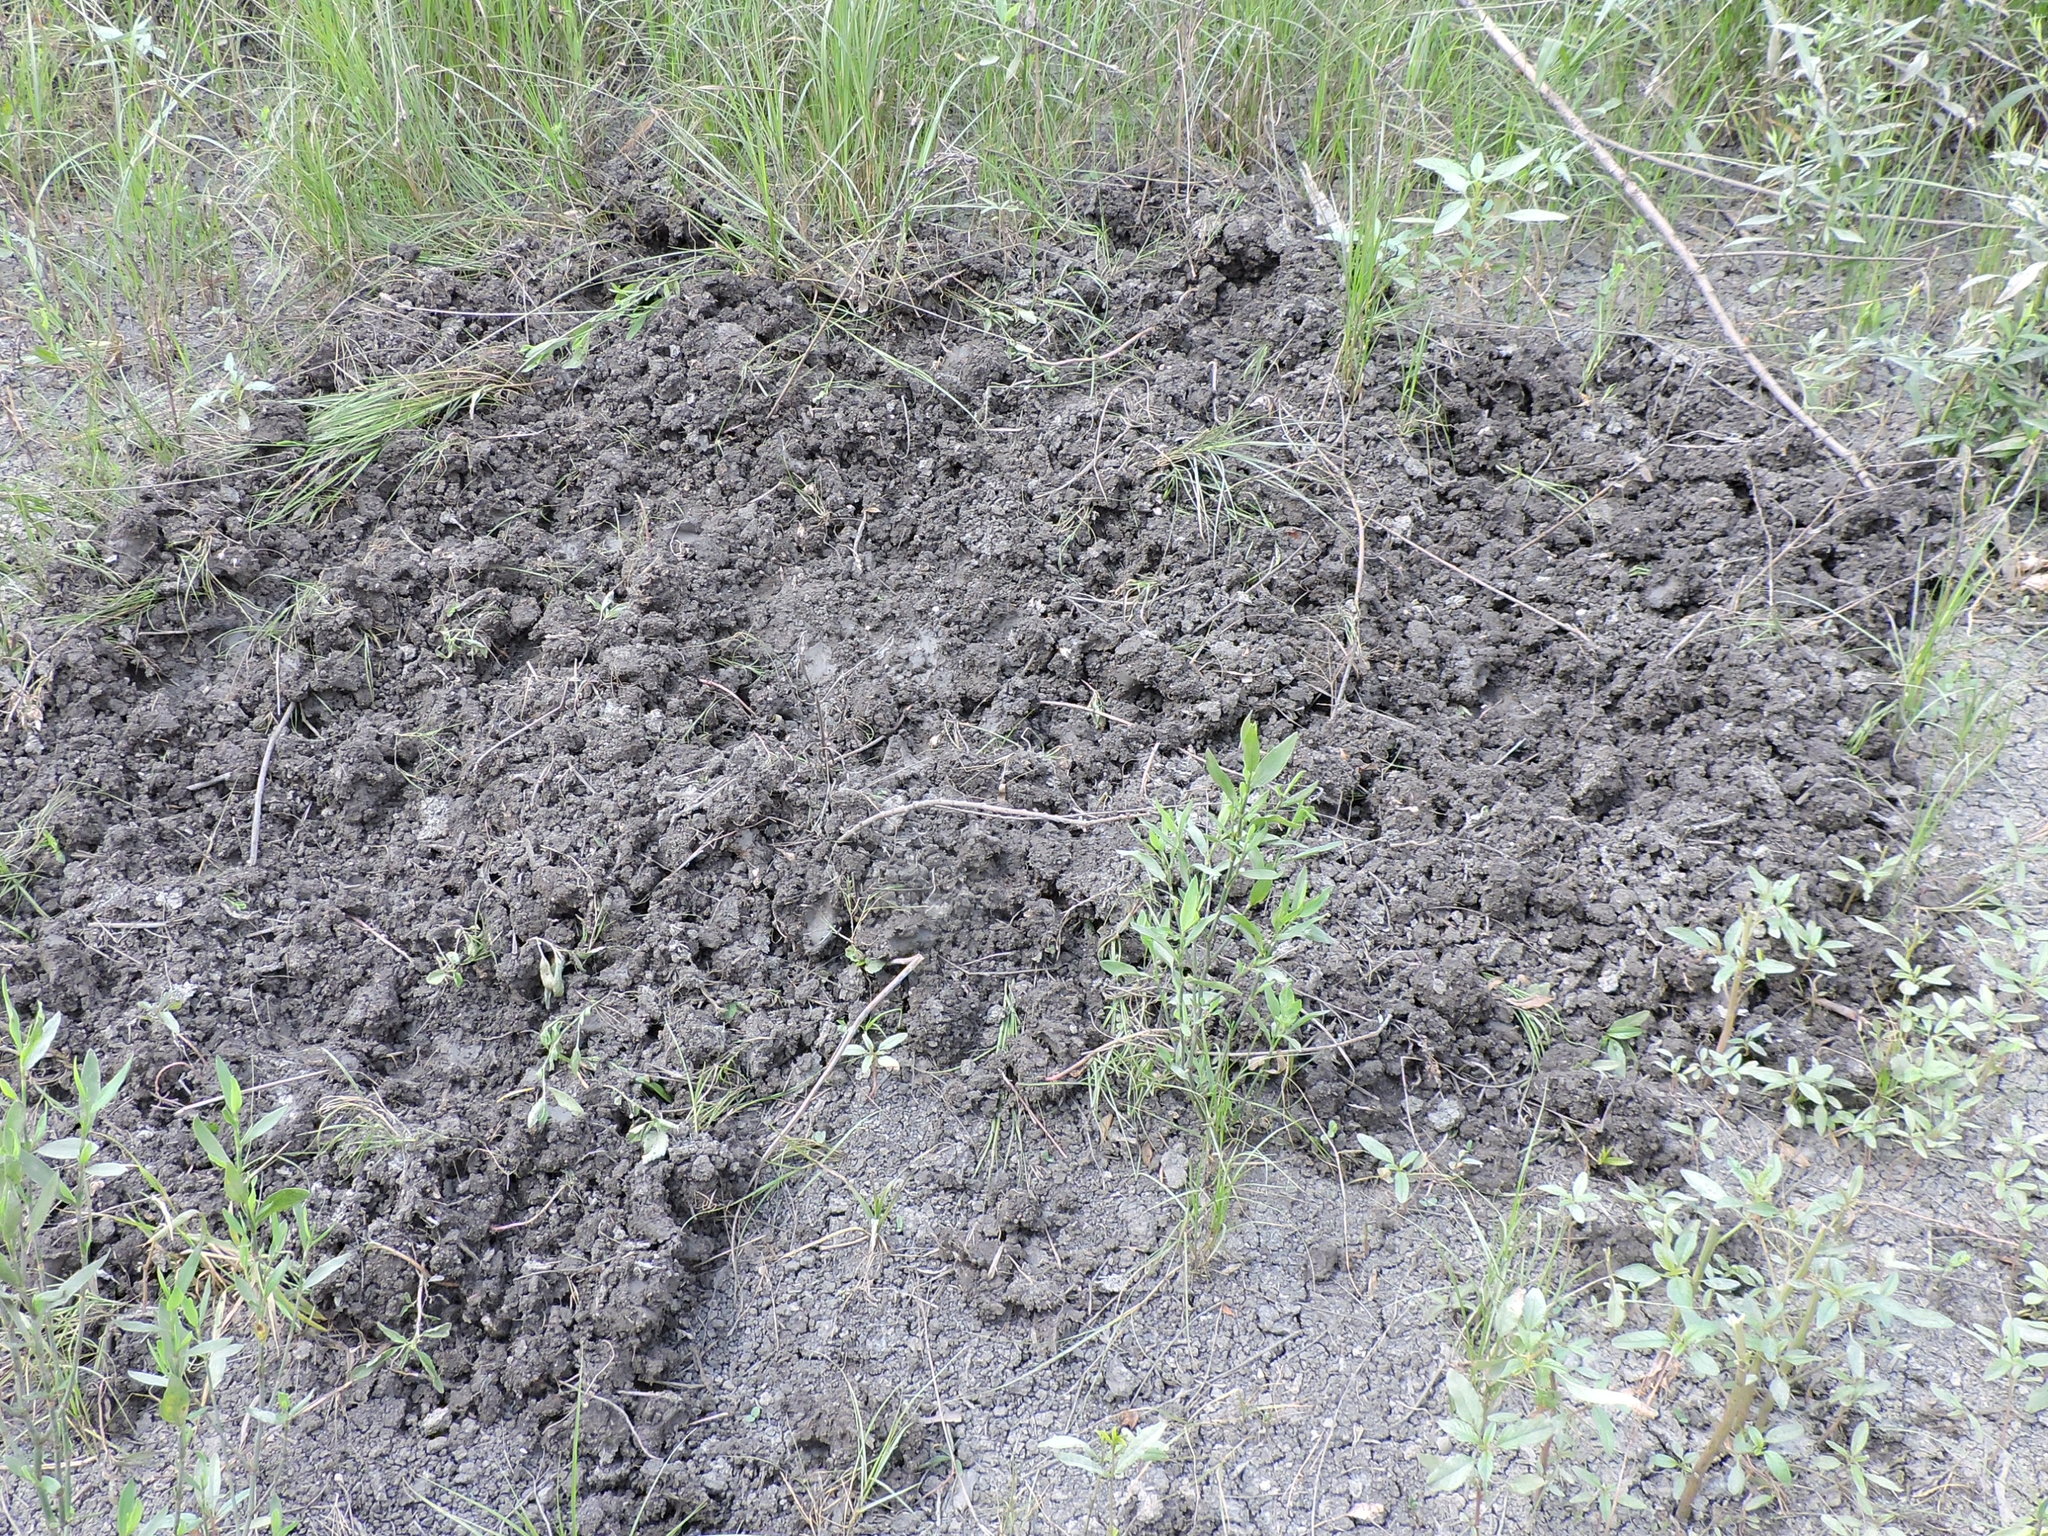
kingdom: Animalia
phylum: Chordata
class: Mammalia
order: Artiodactyla
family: Suidae
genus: Sus
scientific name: Sus scrofa
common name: Wild boar
